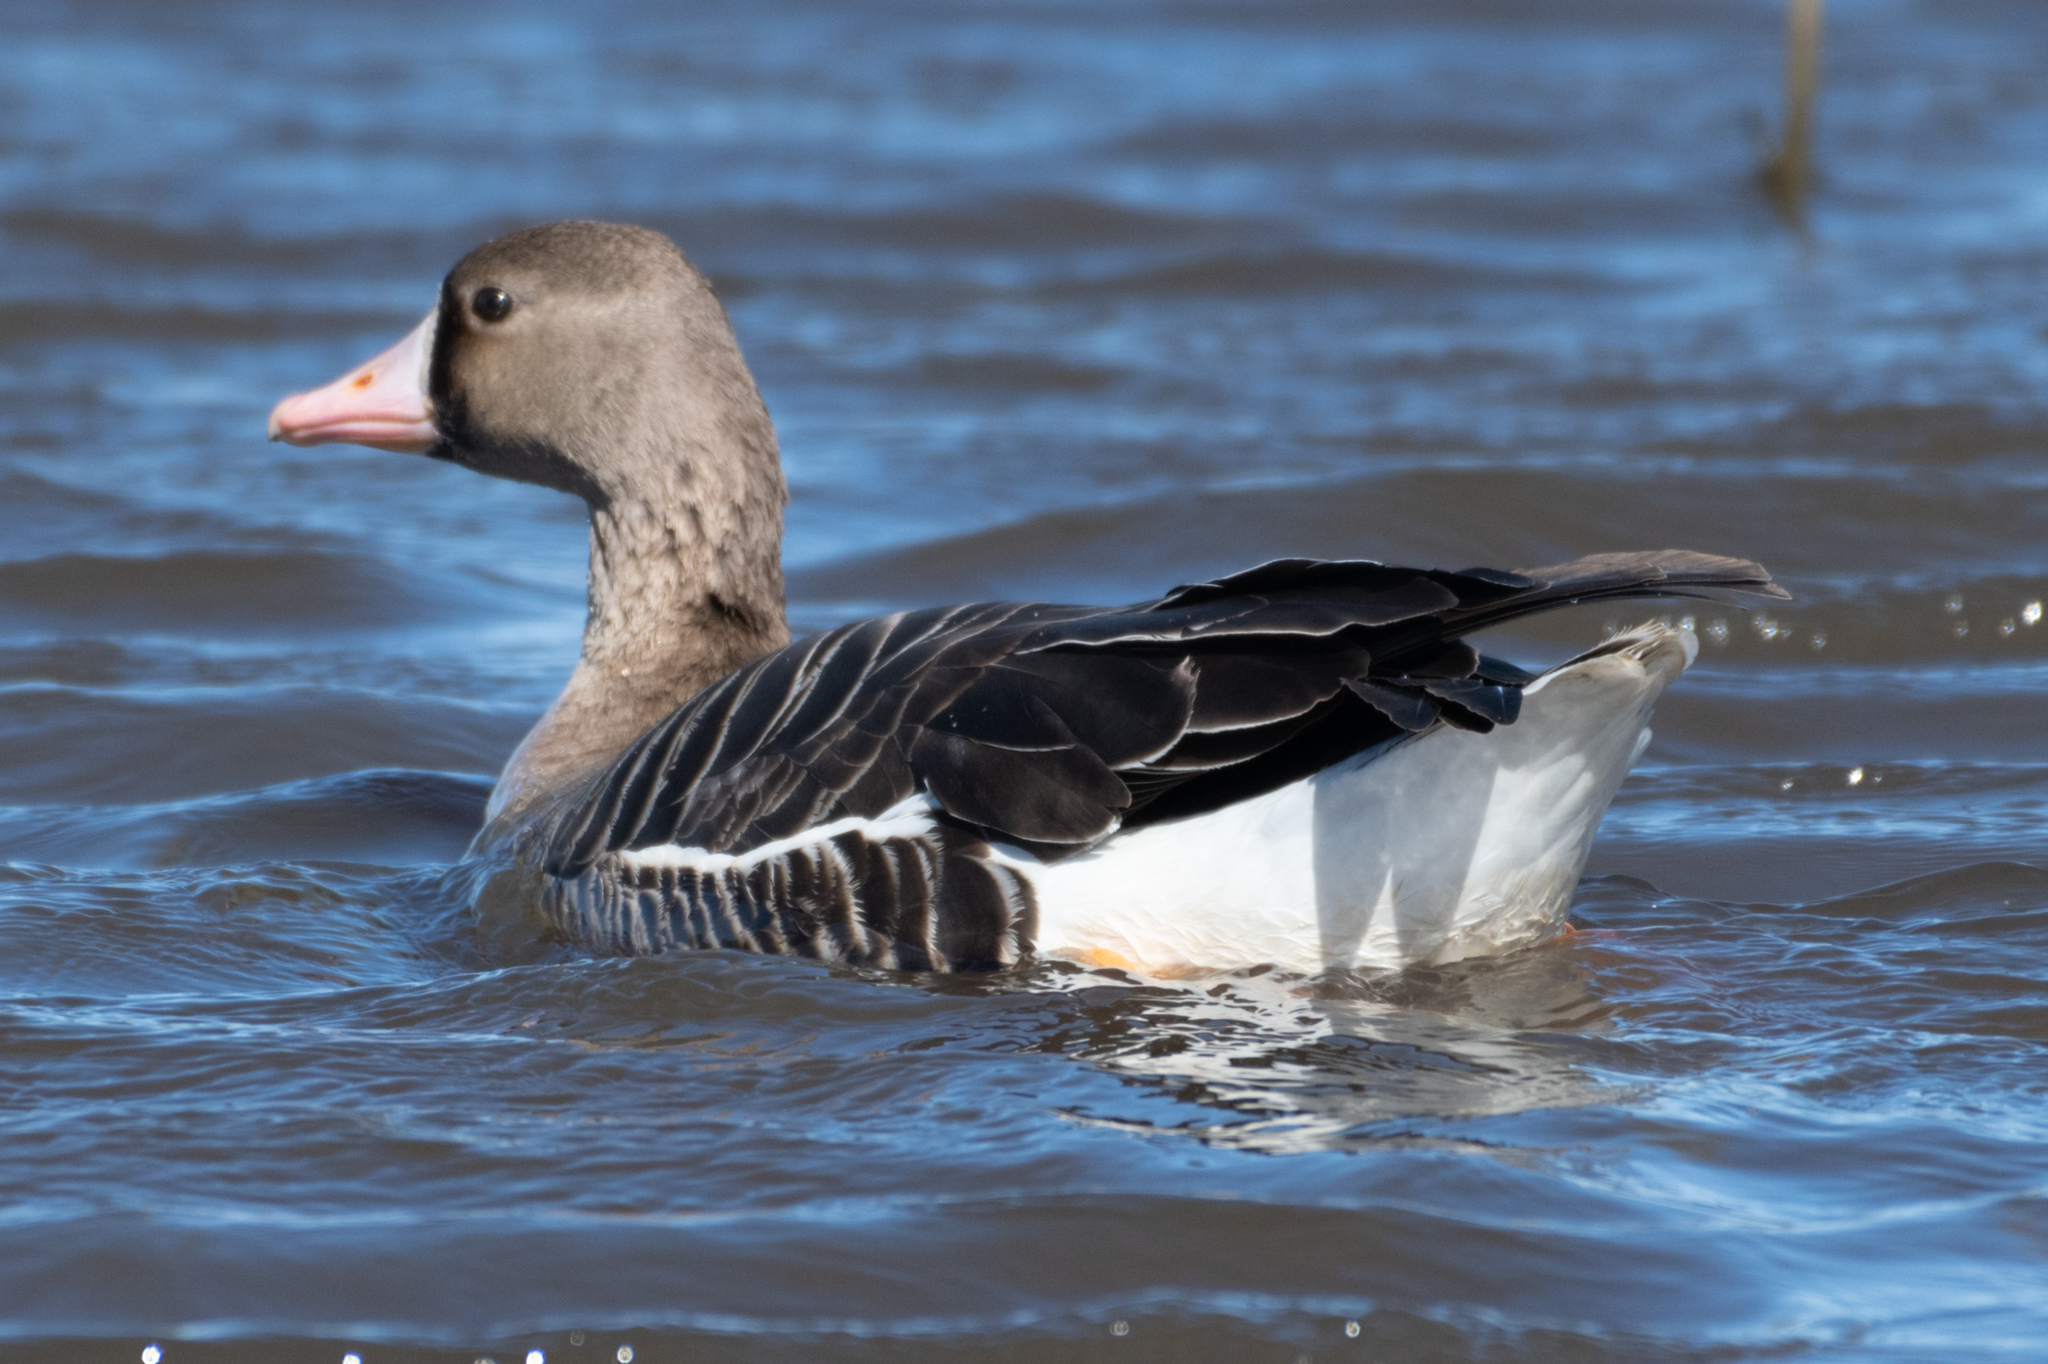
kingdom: Animalia
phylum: Chordata
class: Aves
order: Anseriformes
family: Anatidae
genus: Anser
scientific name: Anser albifrons
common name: Greater white-fronted goose
